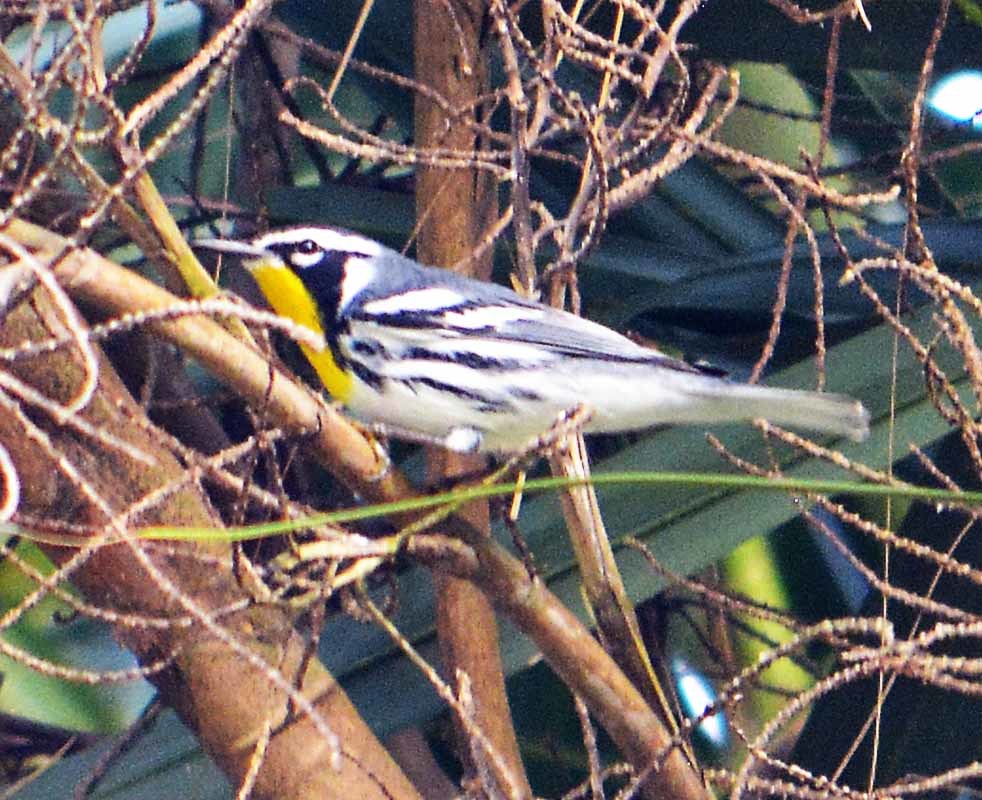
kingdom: Animalia
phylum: Chordata
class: Aves
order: Passeriformes
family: Parulidae
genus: Setophaga
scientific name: Setophaga dominica
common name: Yellow-throated warbler
